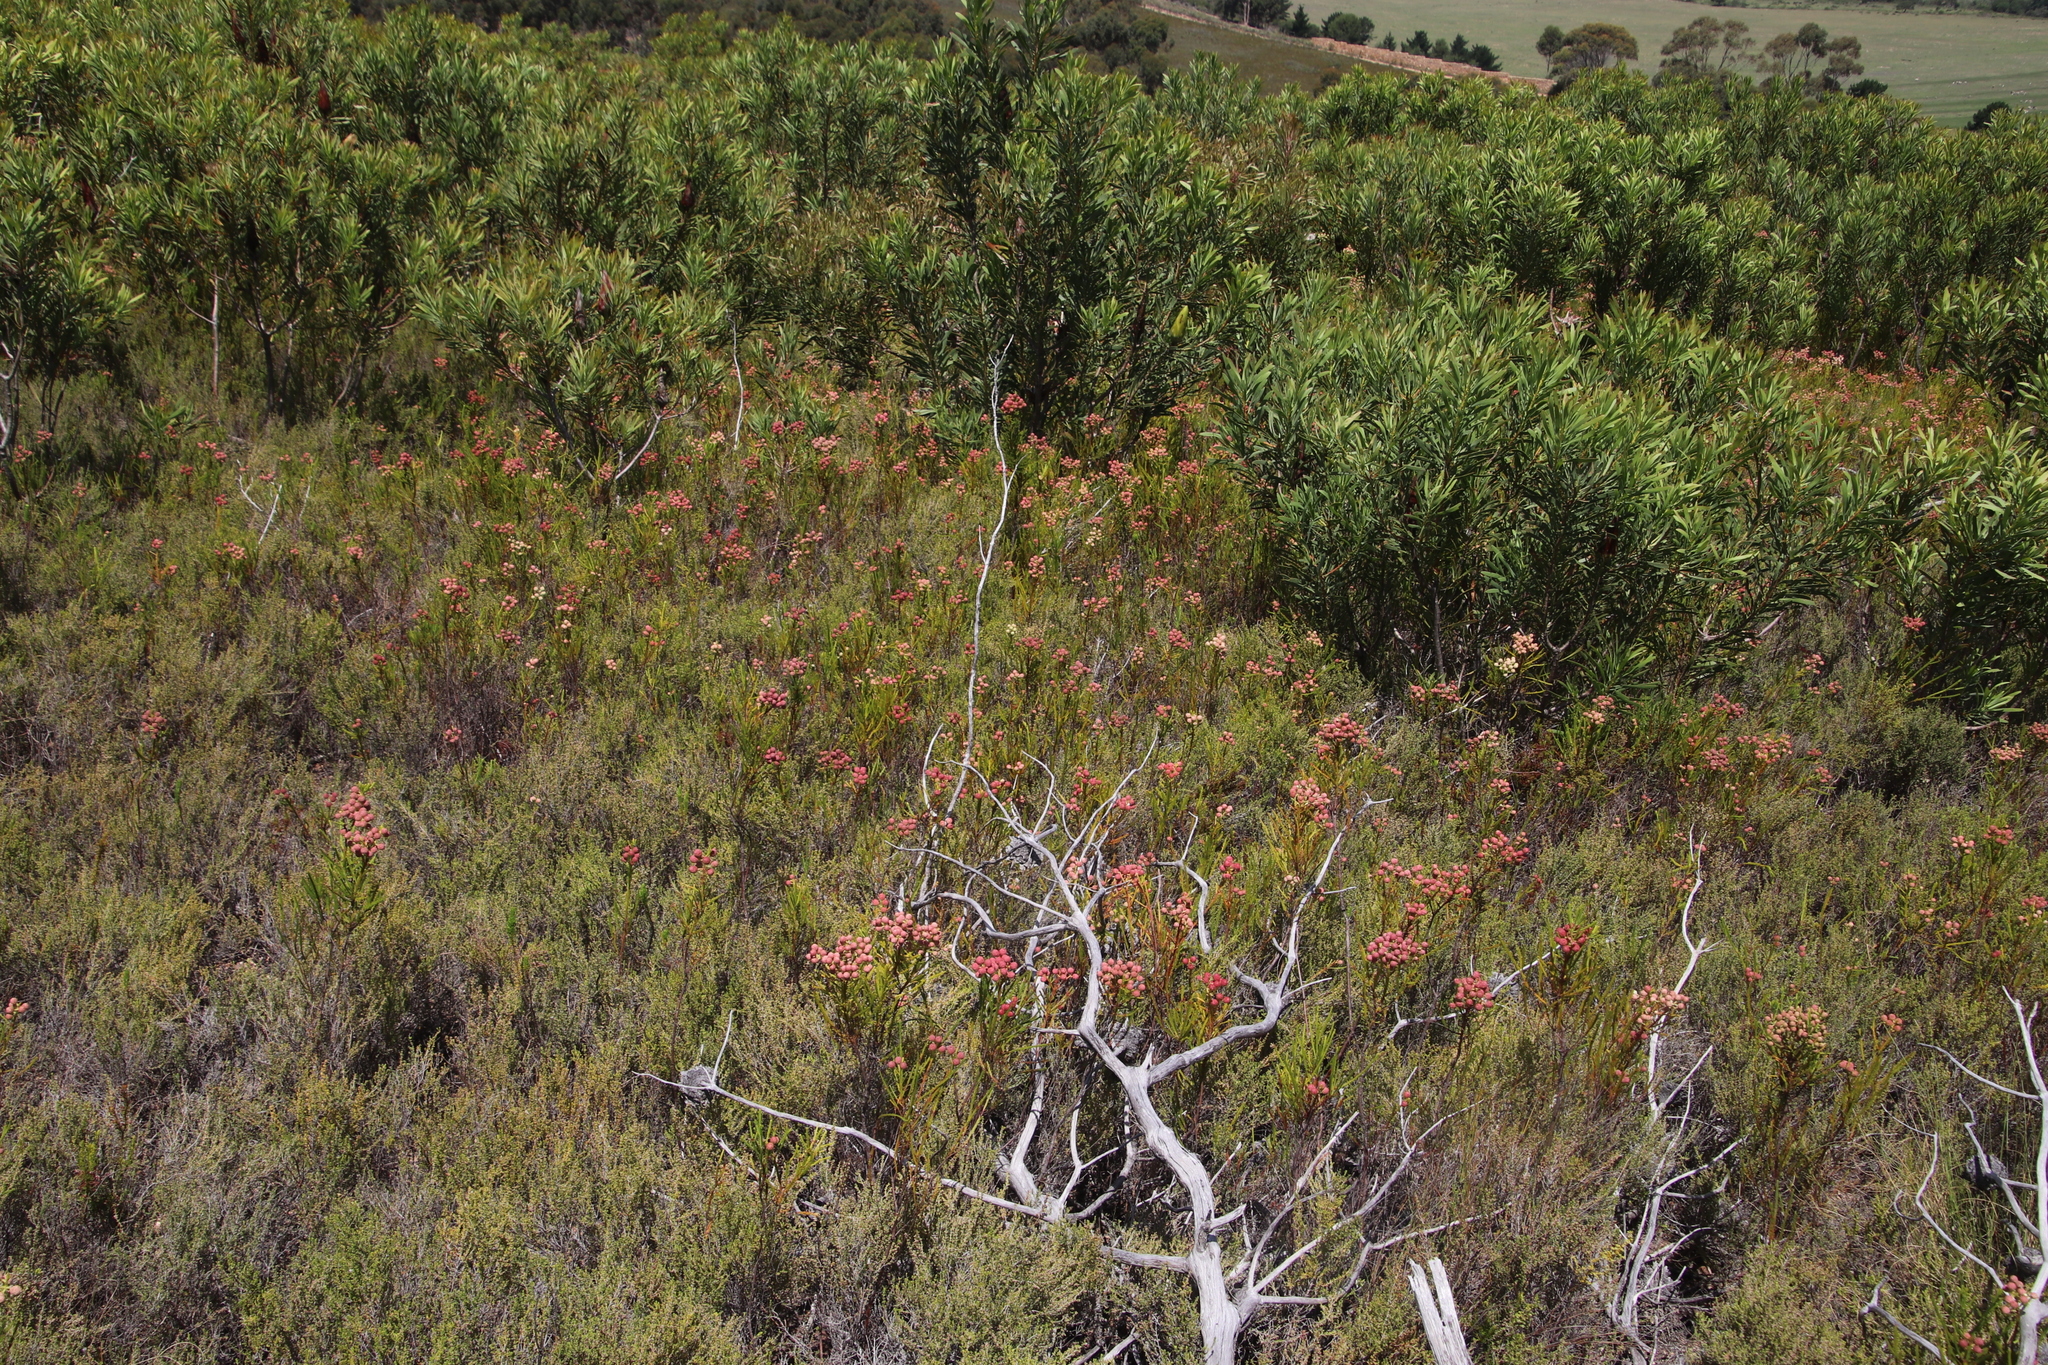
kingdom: Plantae
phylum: Tracheophyta
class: Magnoliopsida
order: Bruniales
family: Bruniaceae
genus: Berzelia
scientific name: Berzelia lanuginosa
